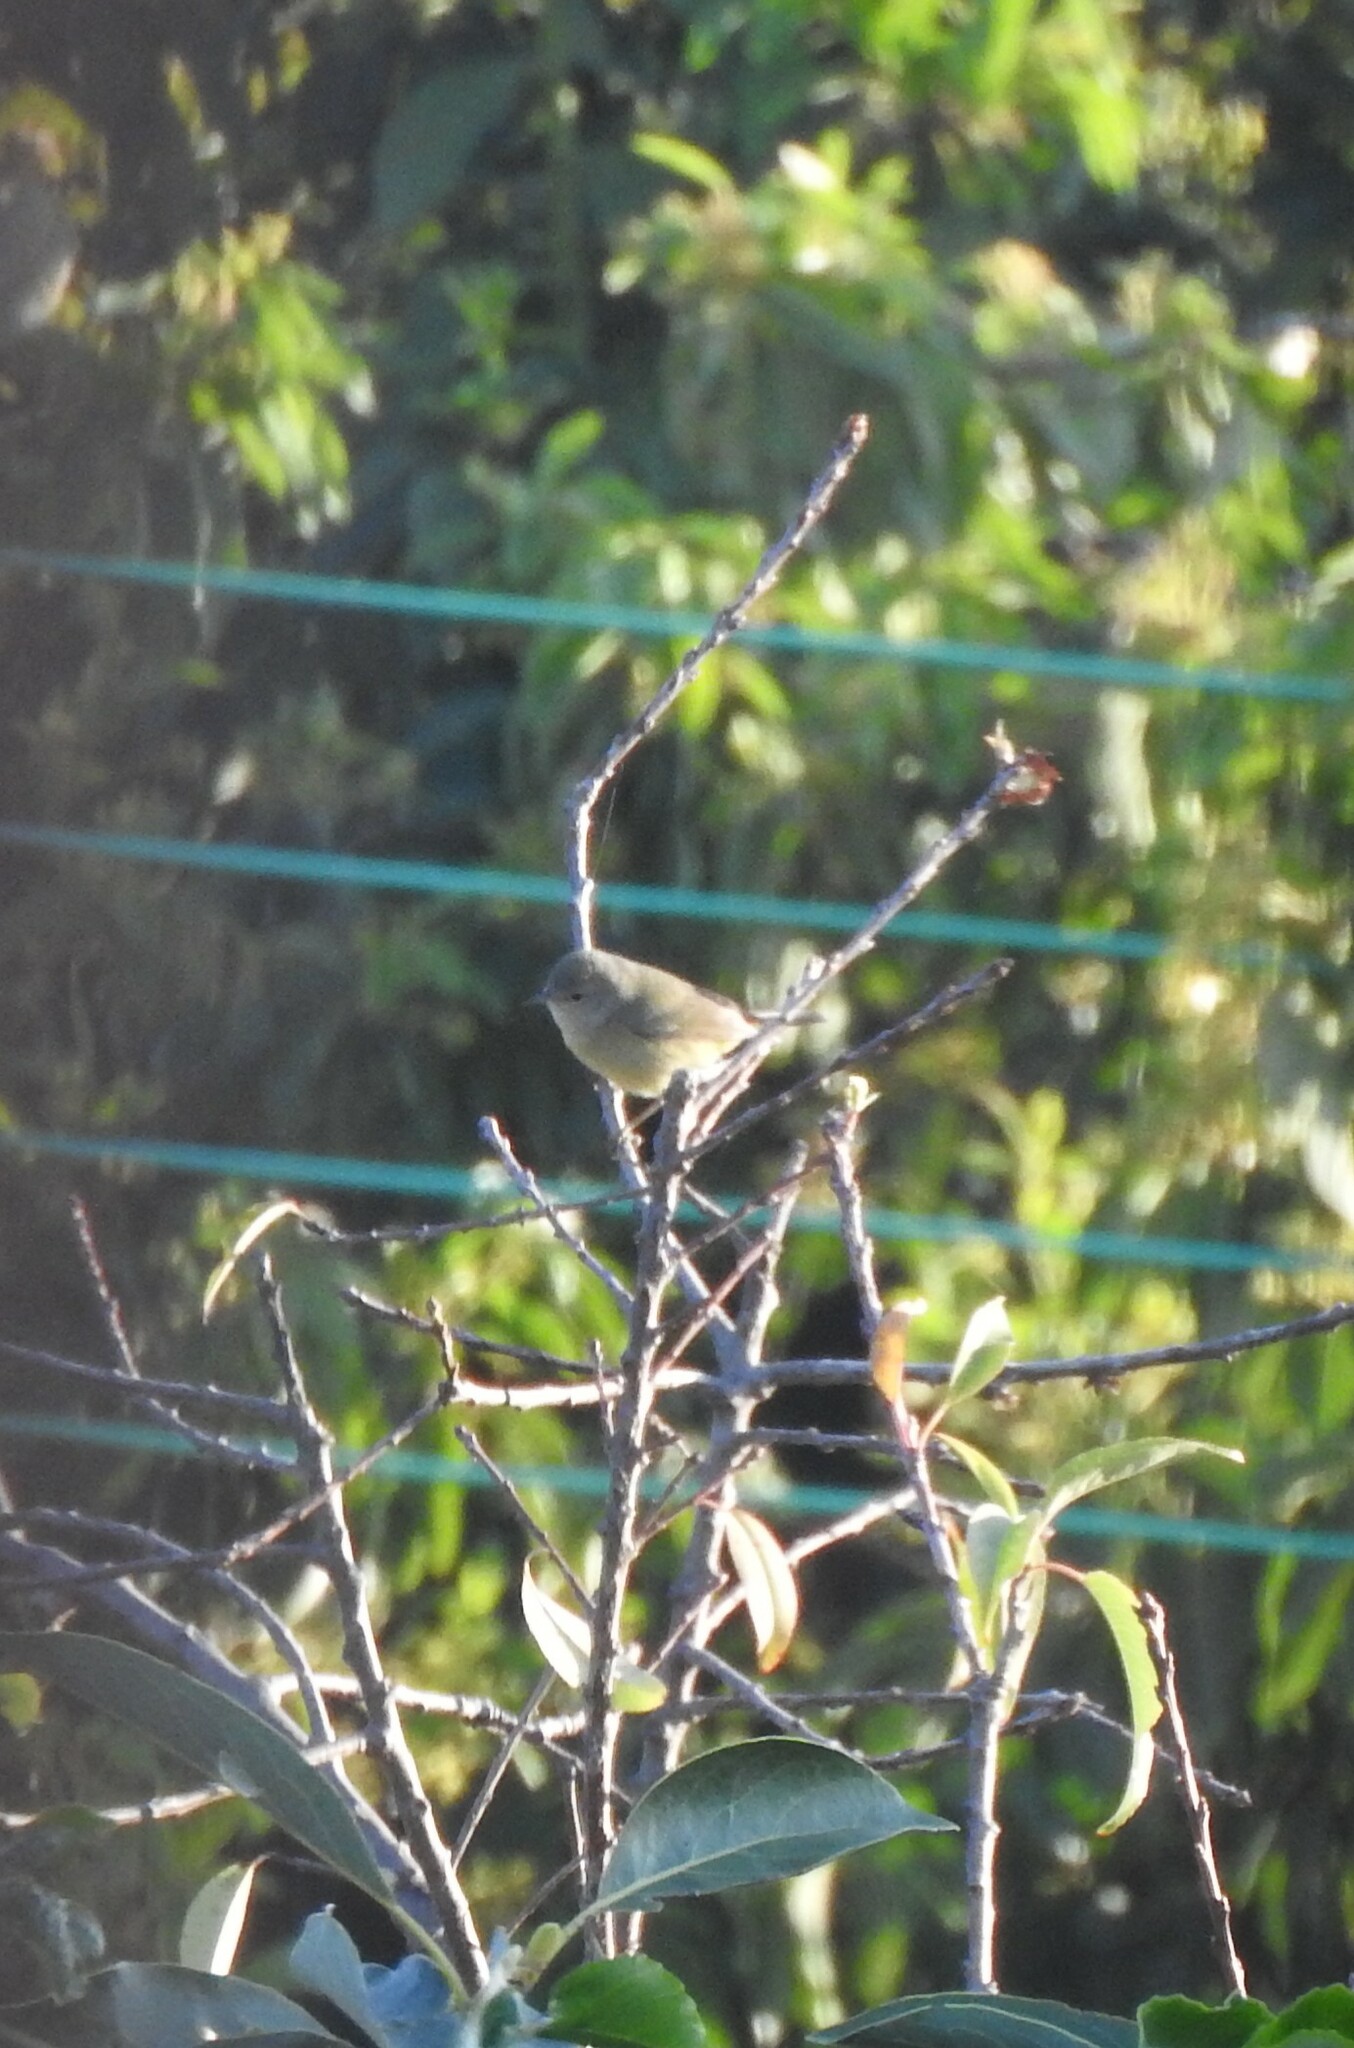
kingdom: Animalia
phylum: Chordata
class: Aves
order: Passeriformes
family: Parulidae
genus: Leiothlypis
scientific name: Leiothlypis celata
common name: Orange-crowned warbler
